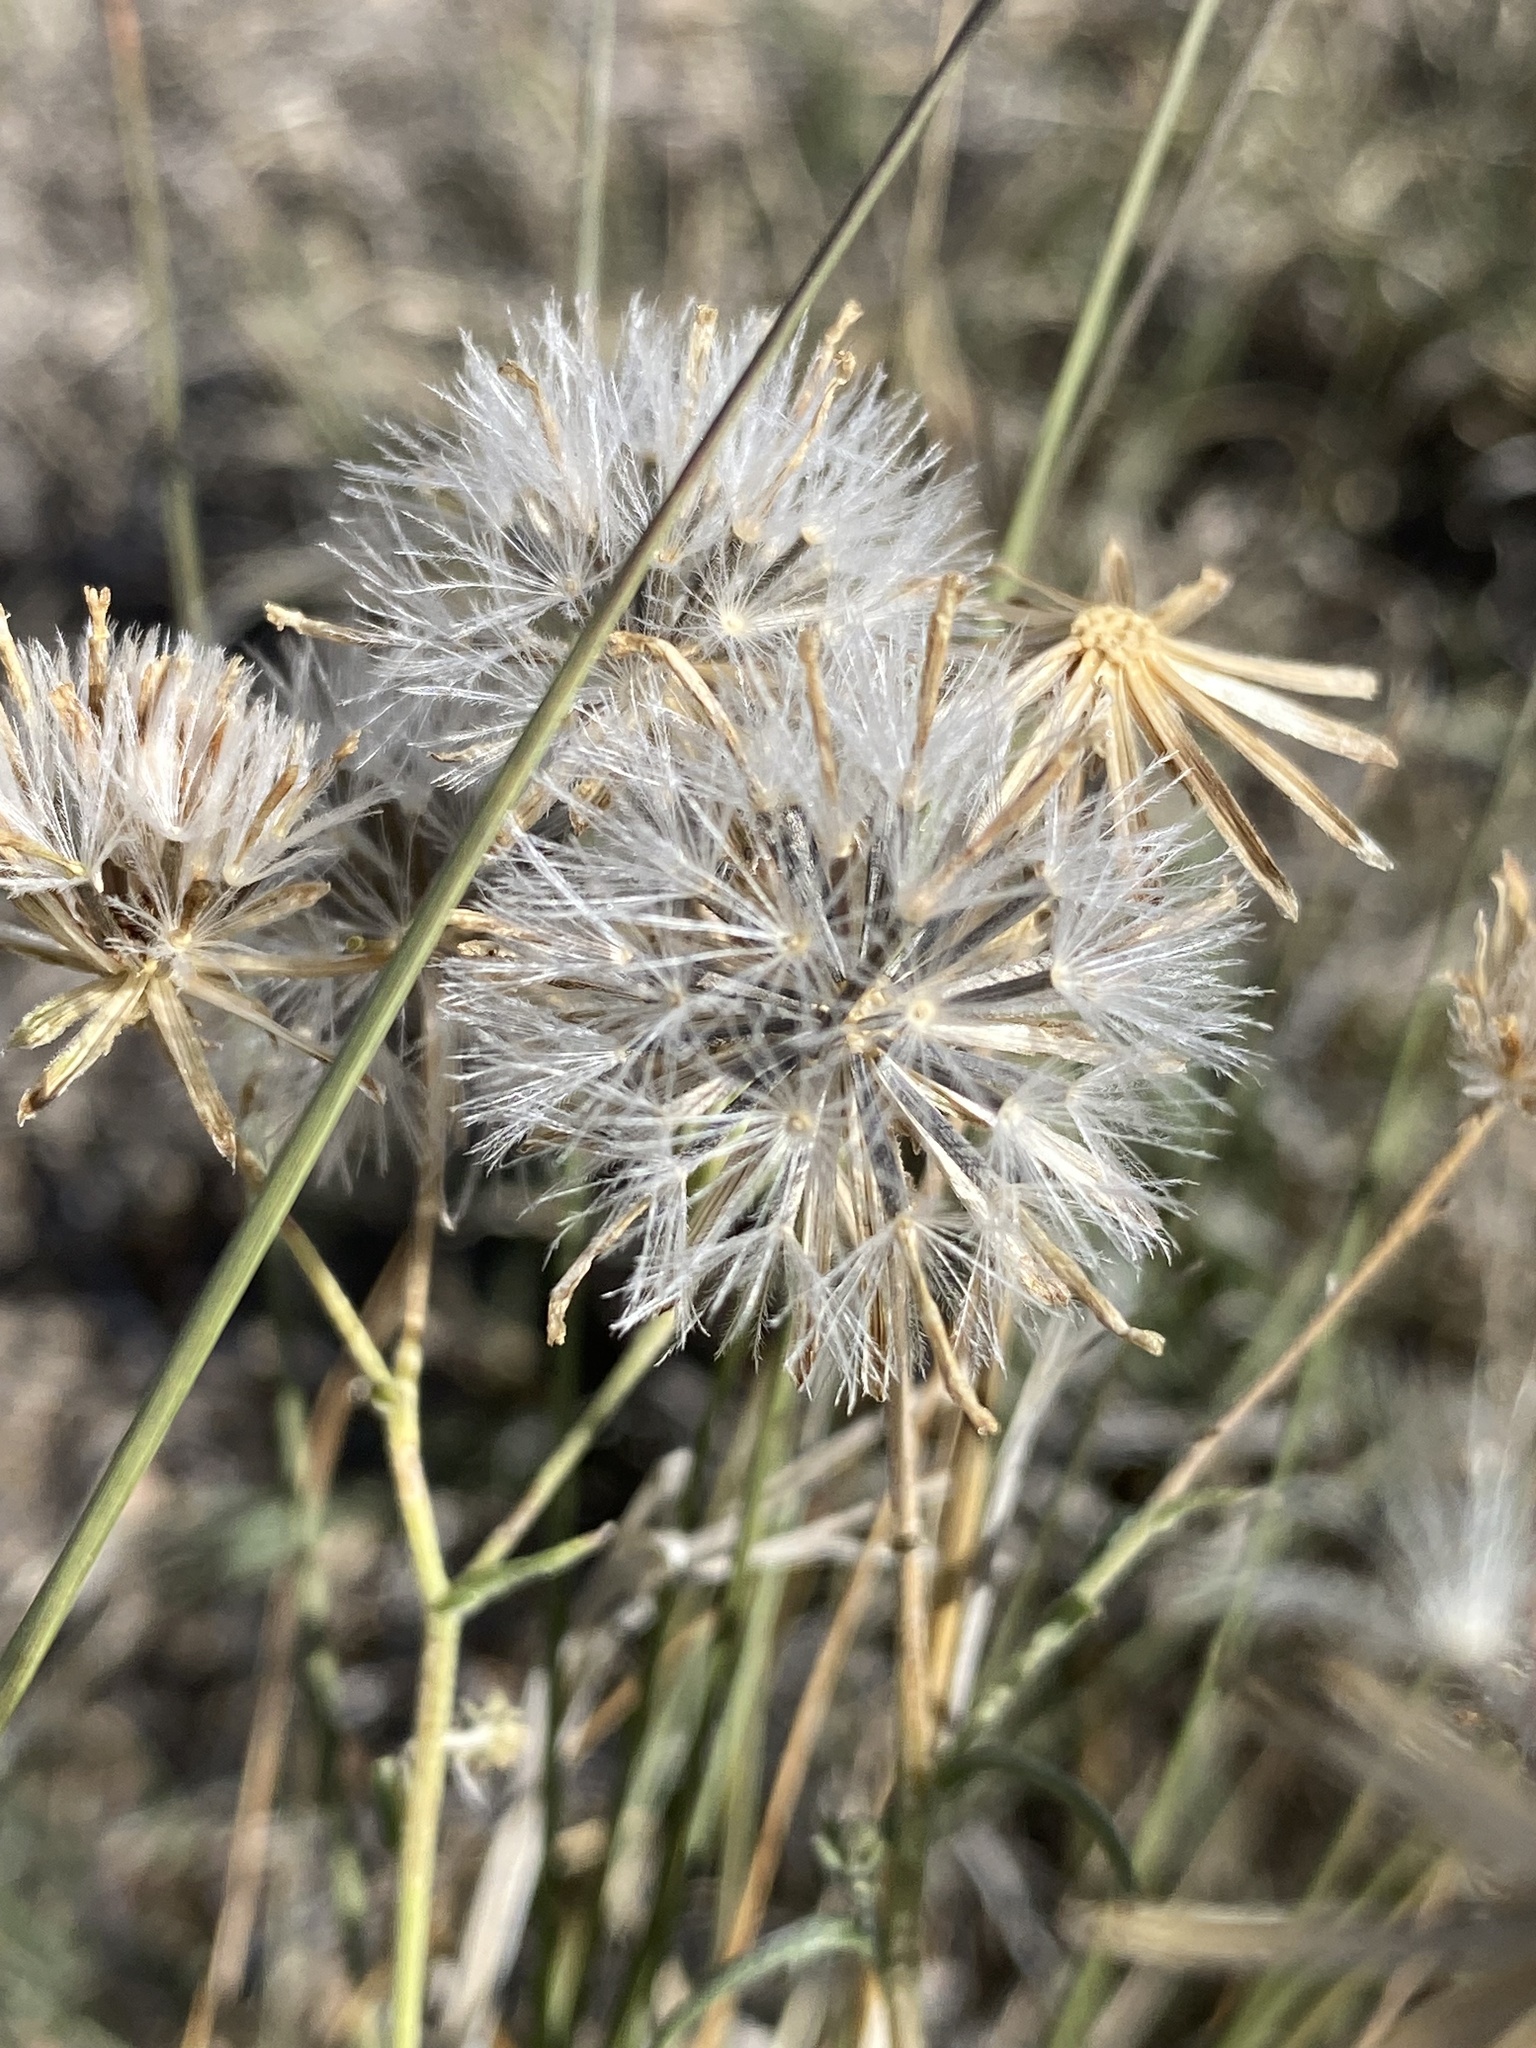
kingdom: Plantae
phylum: Tracheophyta
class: Magnoliopsida
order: Asterales
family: Asteraceae
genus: Brickellia
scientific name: Brickellia eupatorioides
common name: False boneset
